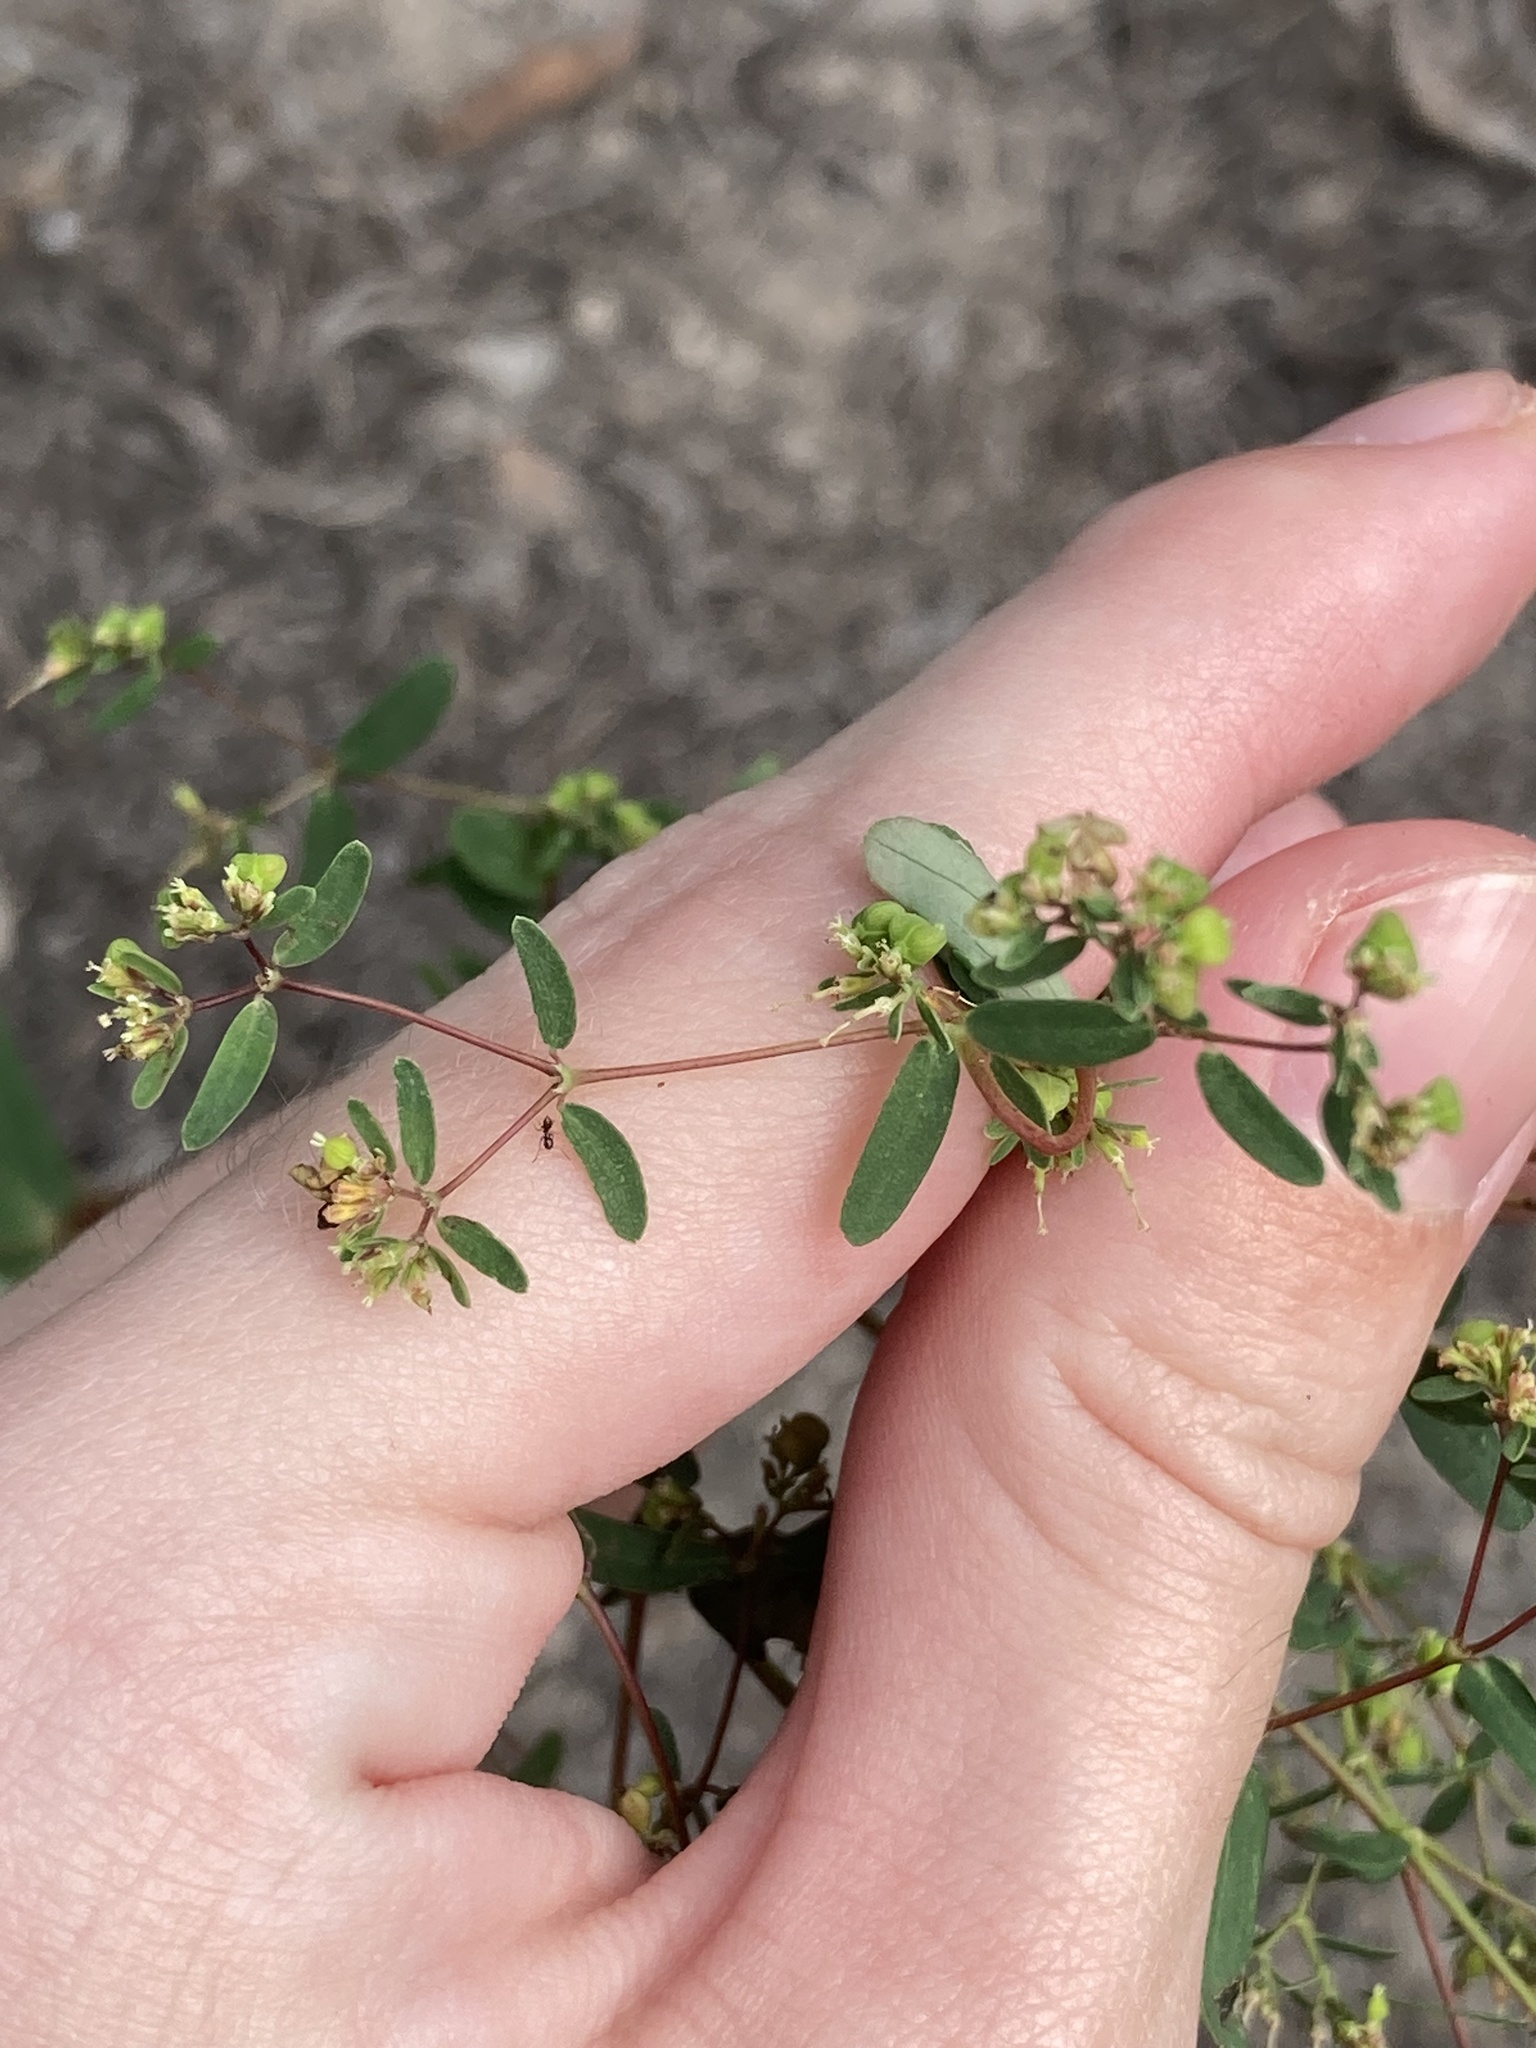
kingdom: Plantae
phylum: Tracheophyta
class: Magnoliopsida
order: Malpighiales
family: Euphorbiaceae
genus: Euphorbia
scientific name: Euphorbia hyssopifolia
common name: Hyssopleaf sandmat
